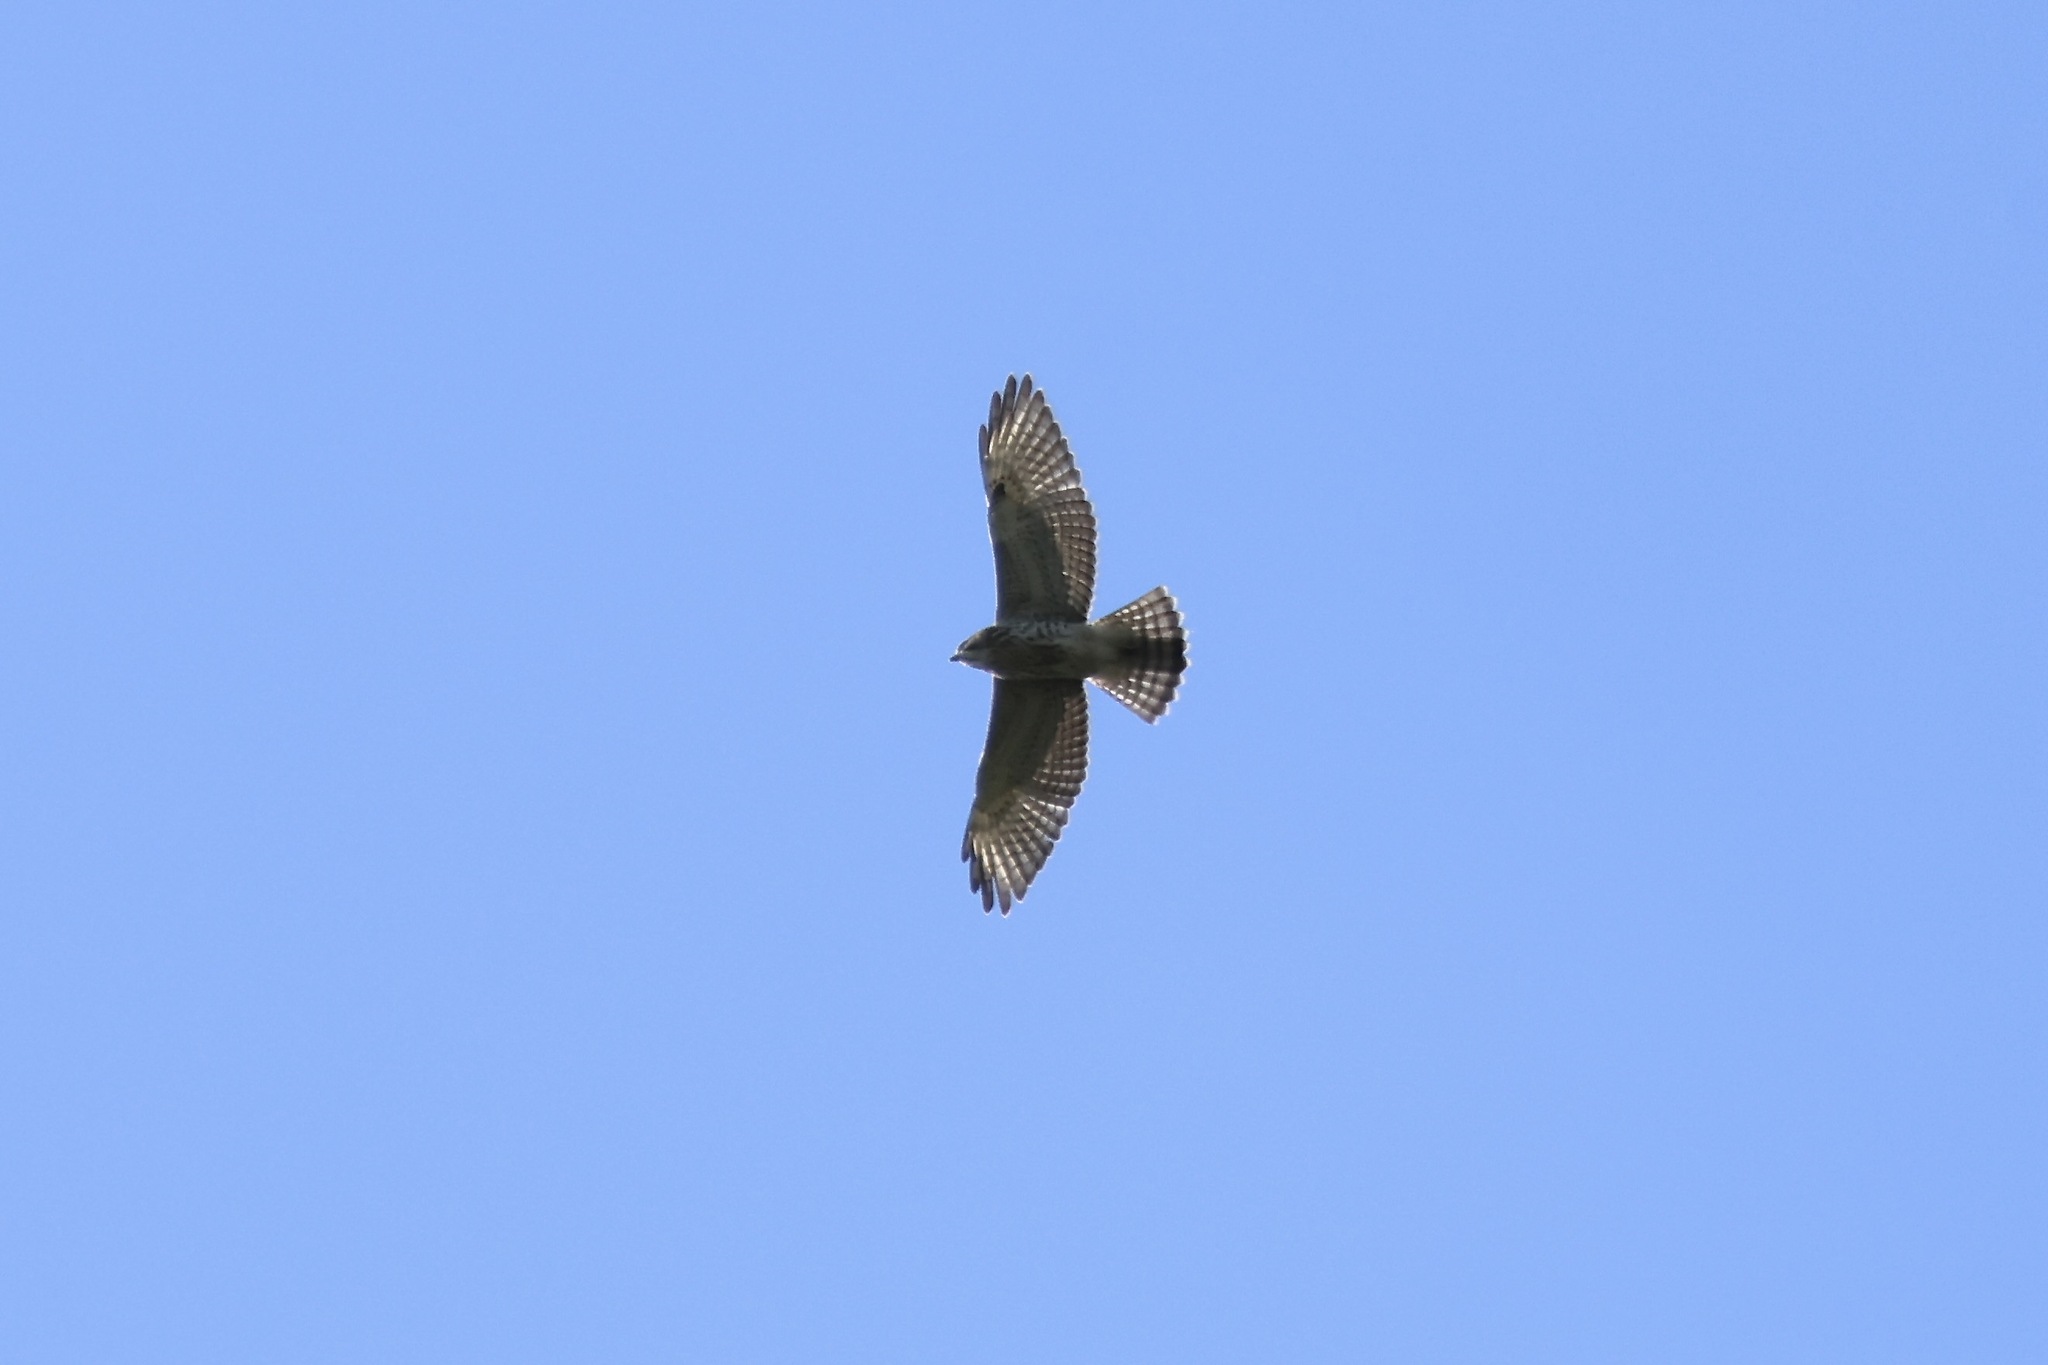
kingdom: Animalia
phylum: Chordata
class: Aves
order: Accipitriformes
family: Accipitridae
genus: Buteo
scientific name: Buteo platypterus
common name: Broad-winged hawk
